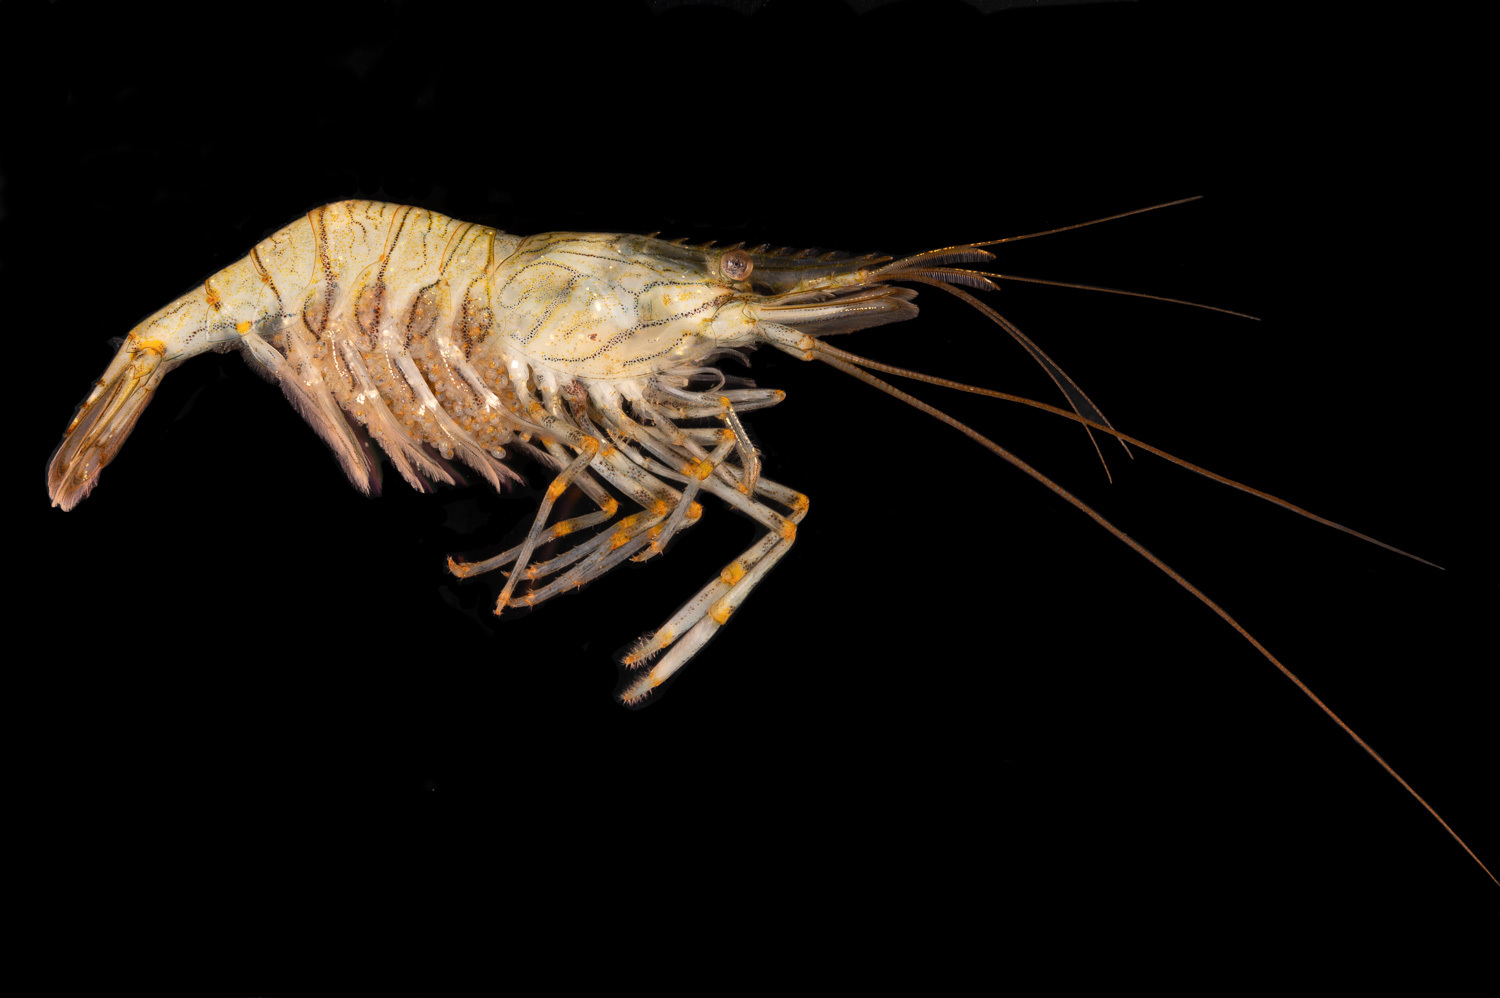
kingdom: Animalia
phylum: Arthropoda
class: Malacostraca
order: Decapoda
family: Palaemonidae
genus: Palaemon
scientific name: Palaemon elegans
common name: Grass prawm
